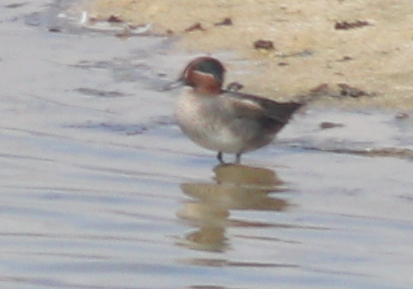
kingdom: Animalia
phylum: Chordata
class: Aves
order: Anseriformes
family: Anatidae
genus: Anas
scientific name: Anas crecca
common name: Eurasian teal
